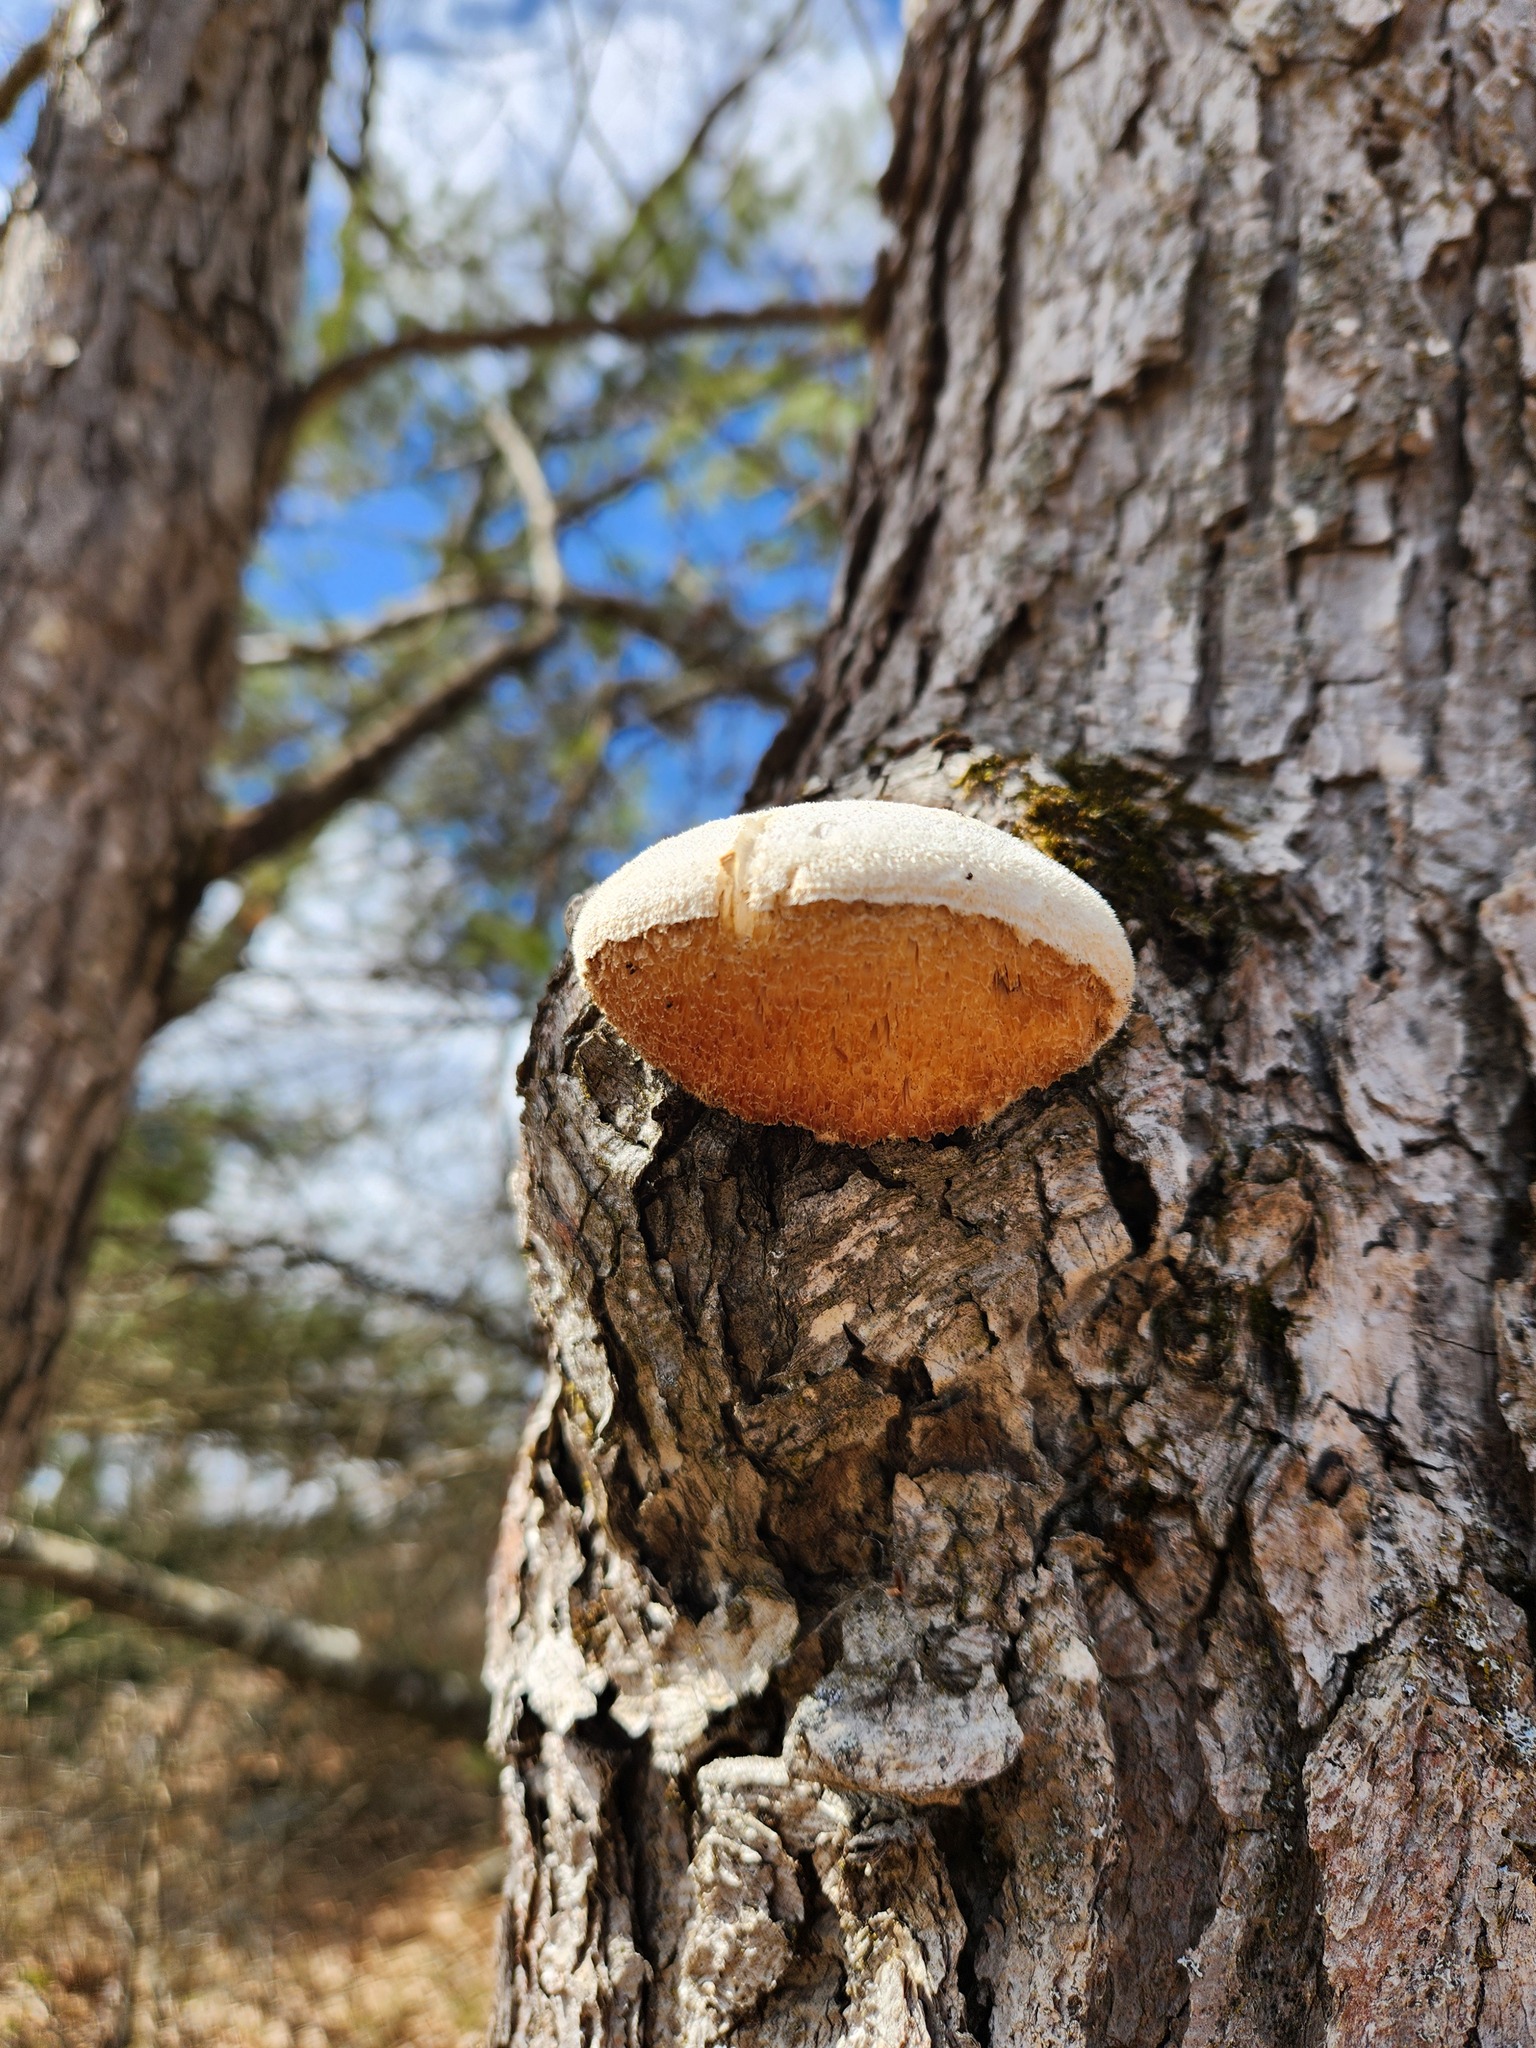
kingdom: Fungi
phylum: Basidiomycota
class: Agaricomycetes
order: Polyporales
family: Meruliaceae
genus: Spongipellis
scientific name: Spongipellis
